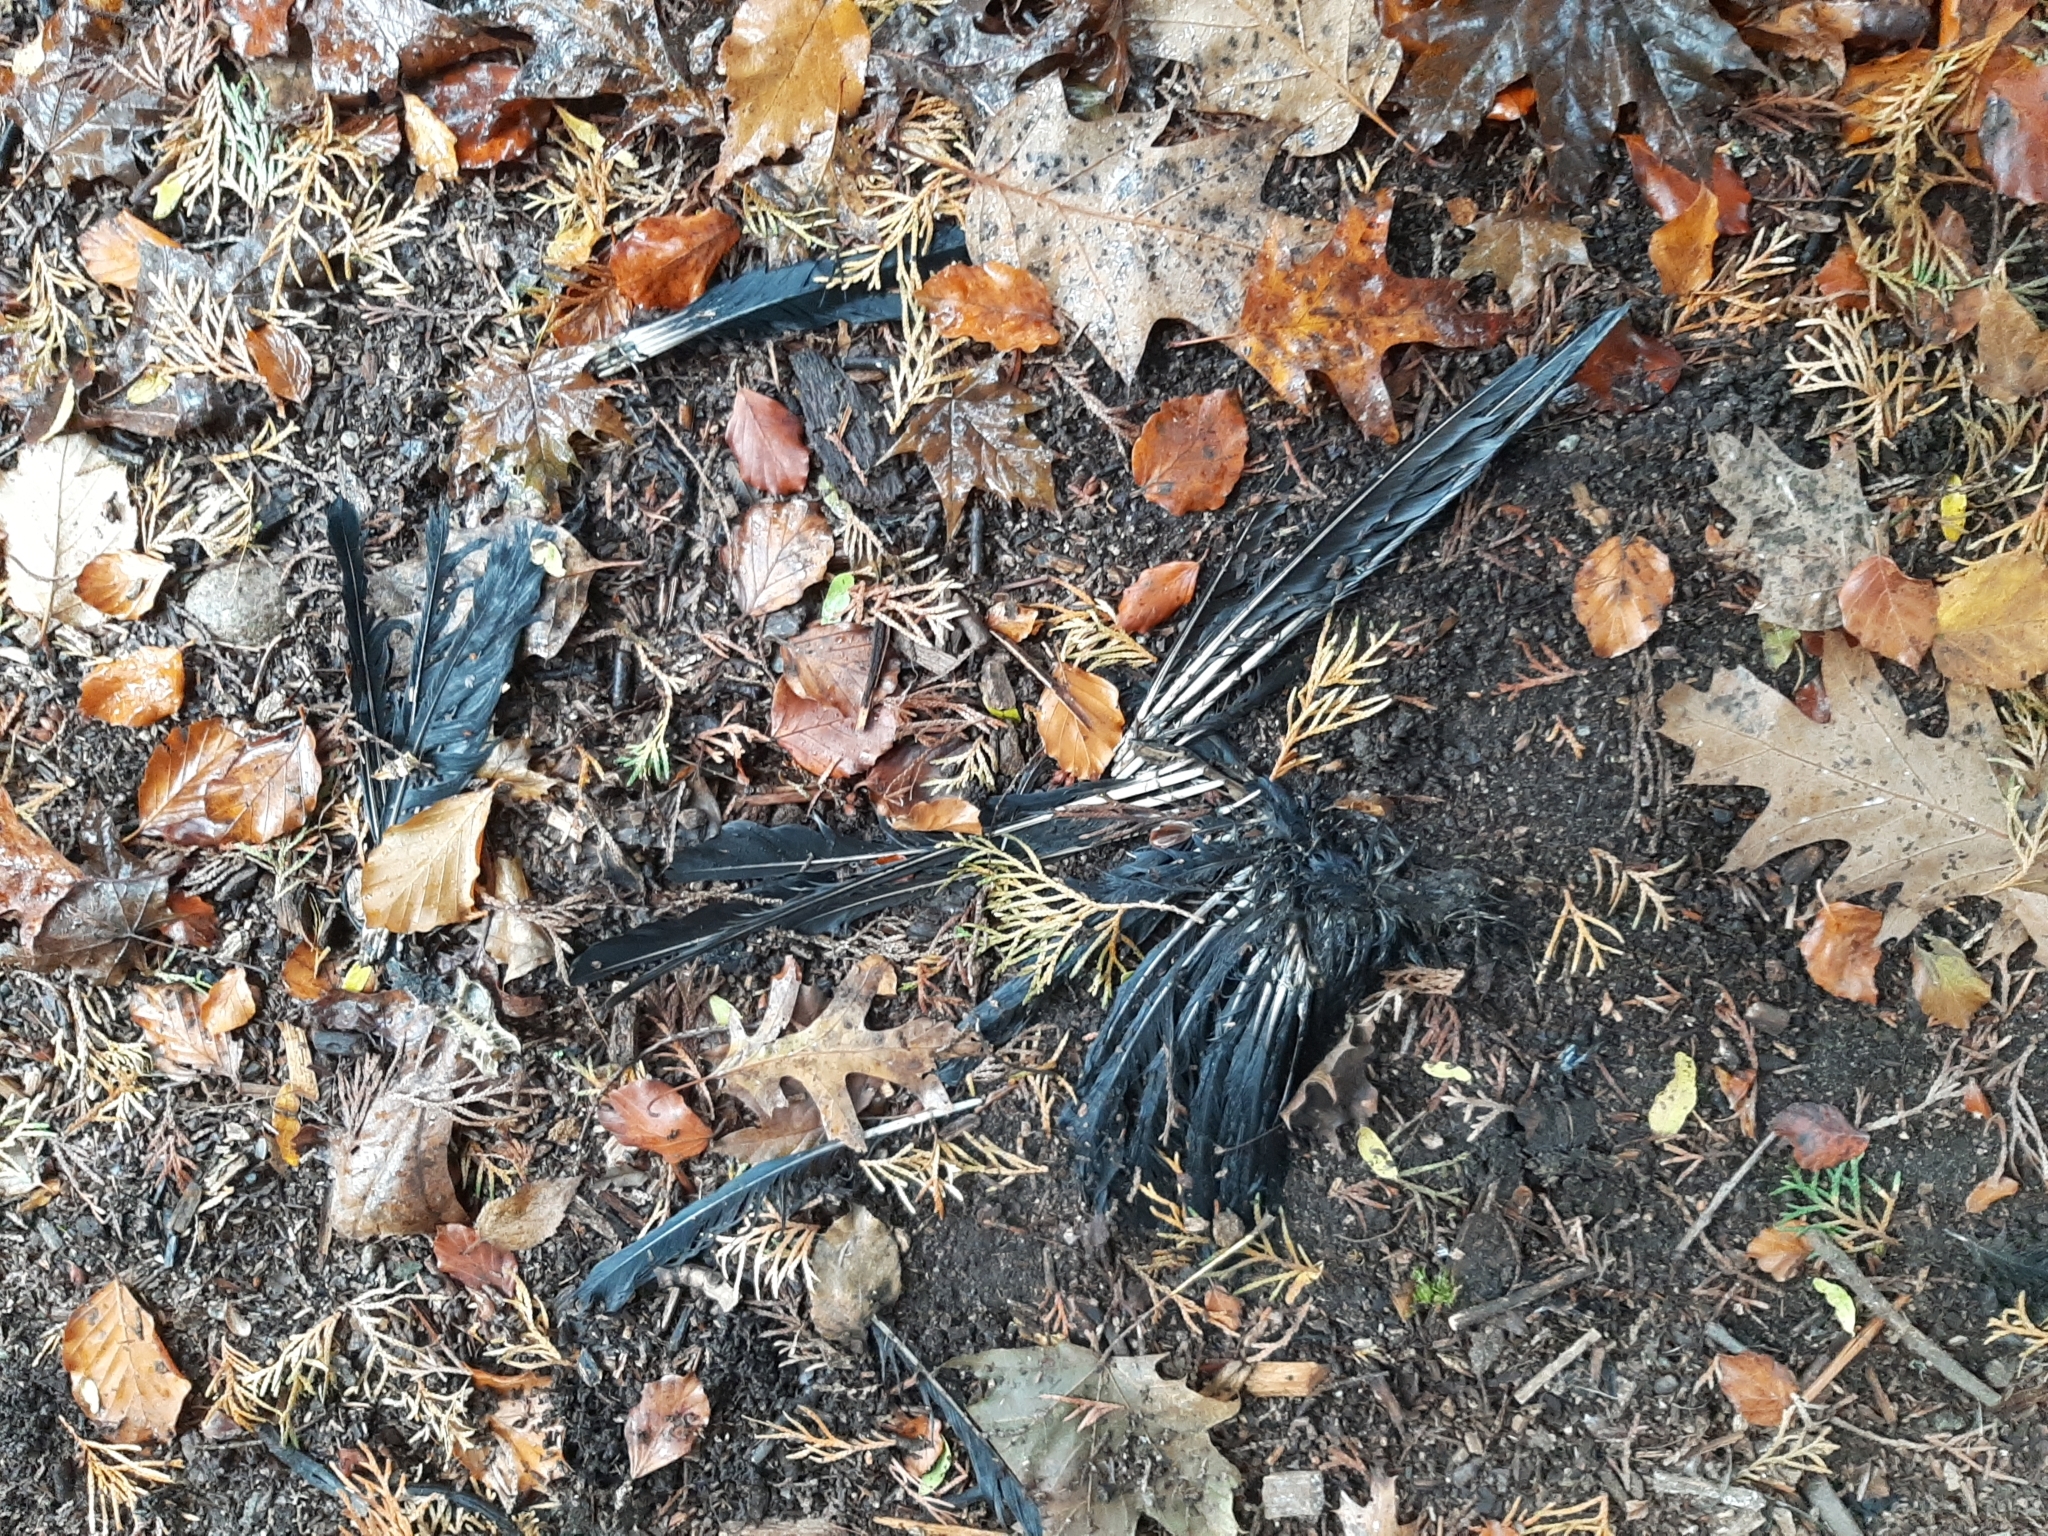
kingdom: Animalia
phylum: Chordata
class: Aves
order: Passeriformes
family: Corvidae
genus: Corvus
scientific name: Corvus brachyrhynchos
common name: American crow
